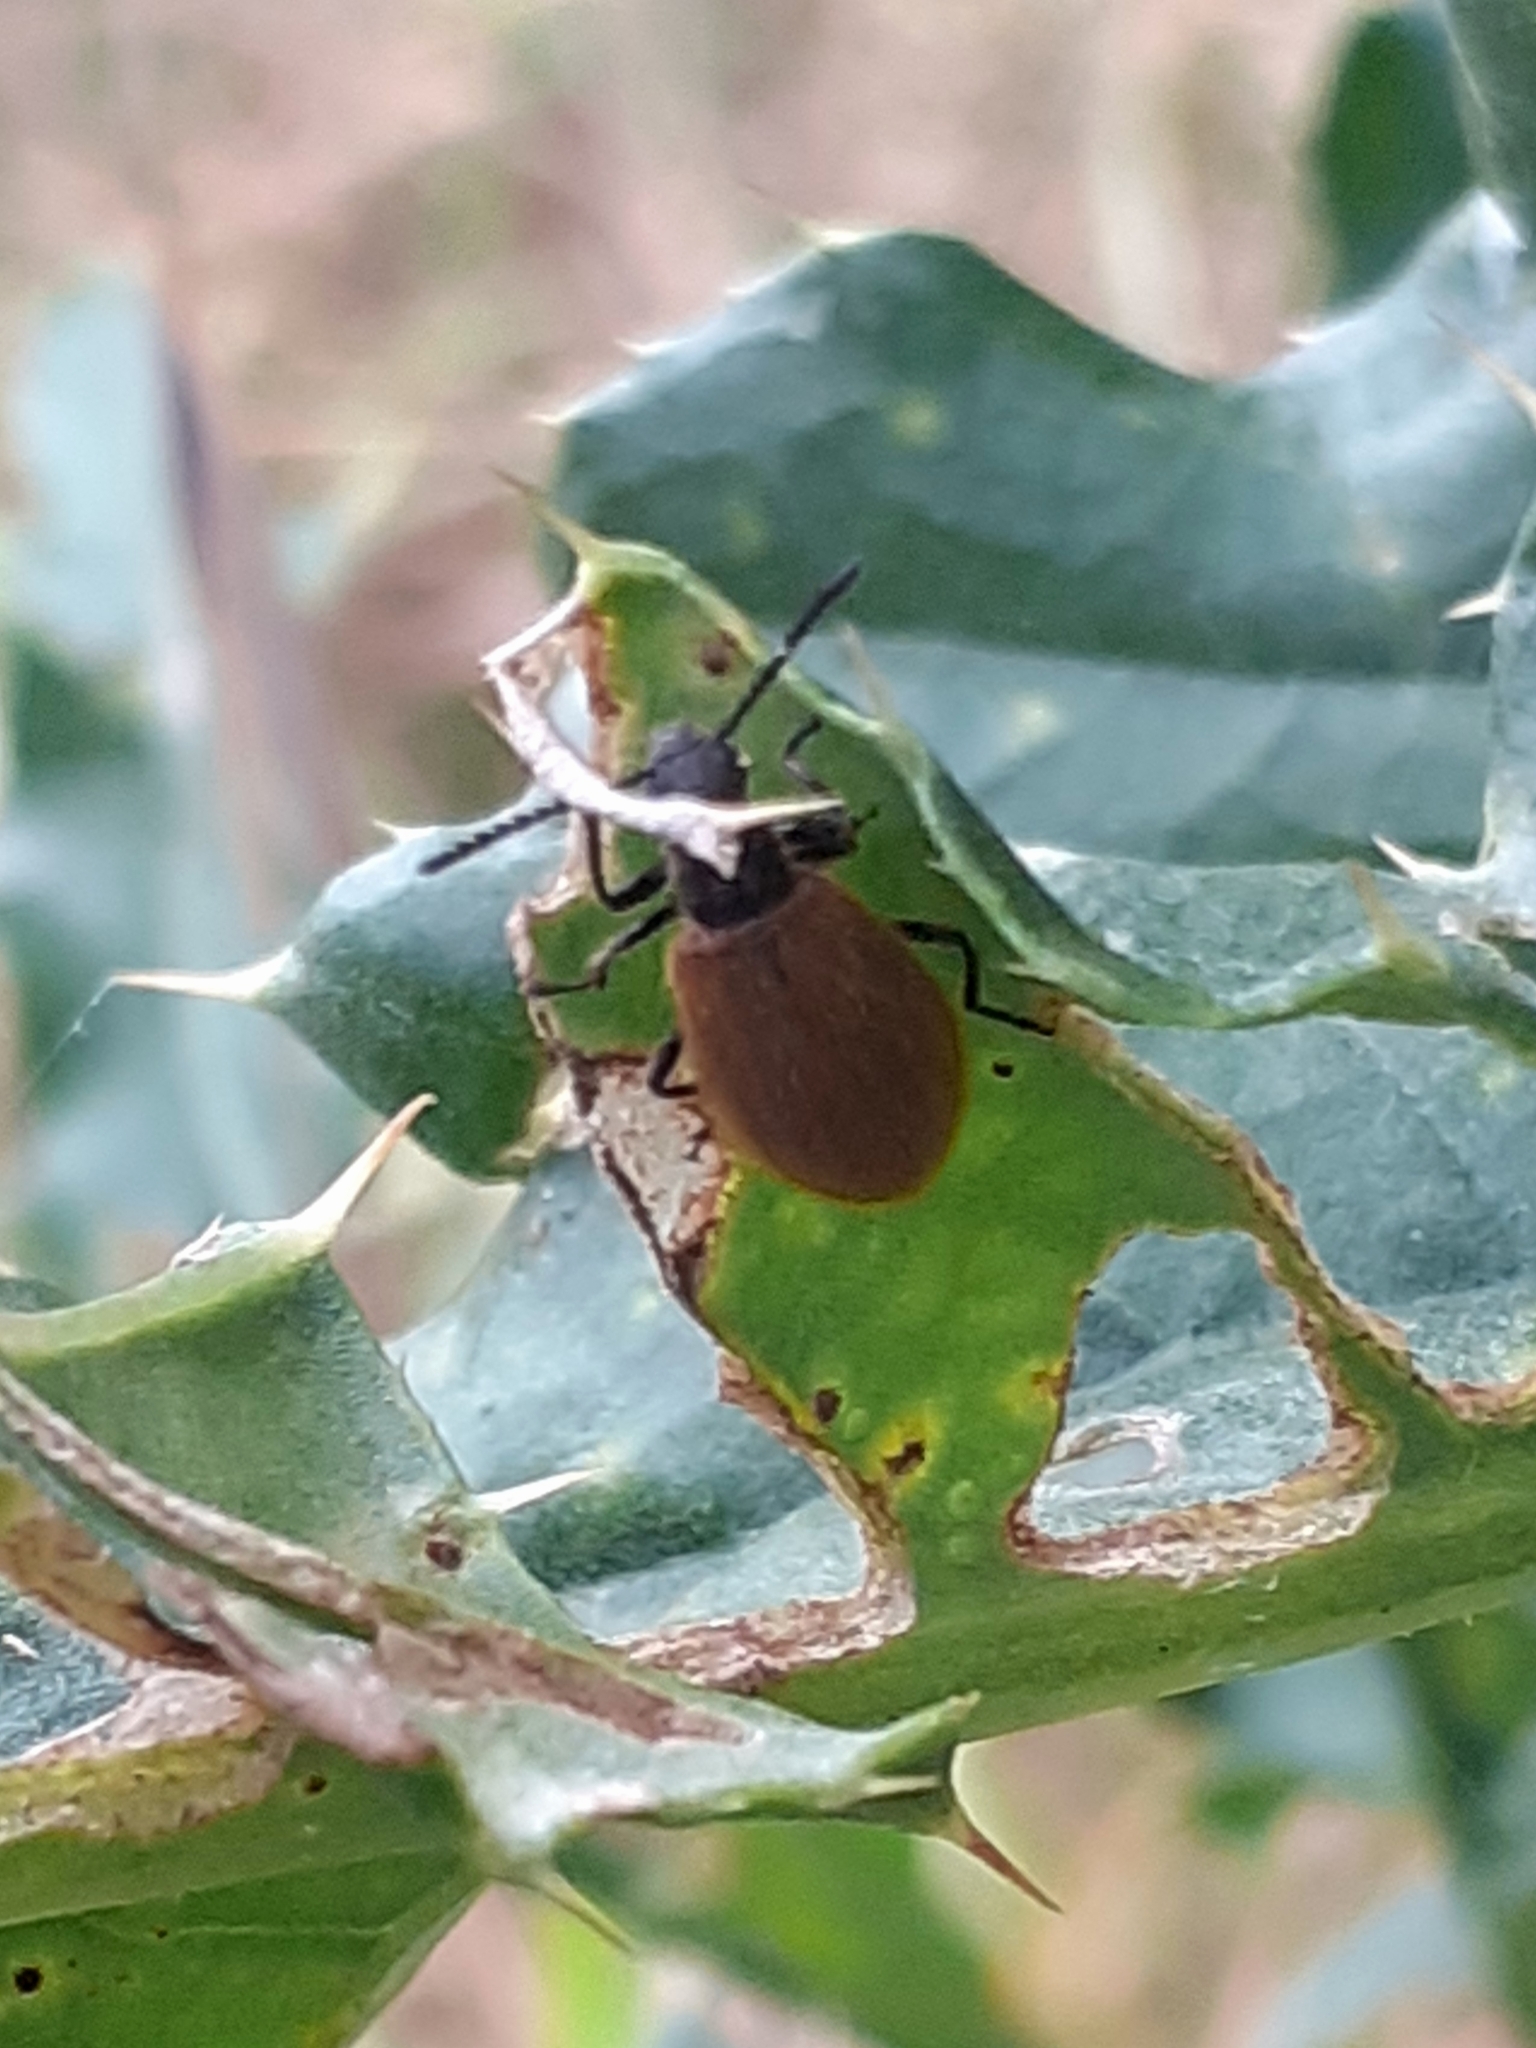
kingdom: Animalia
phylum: Arthropoda
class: Insecta
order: Coleoptera
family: Tenebrionidae
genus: Lagria
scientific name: Lagria hirta
